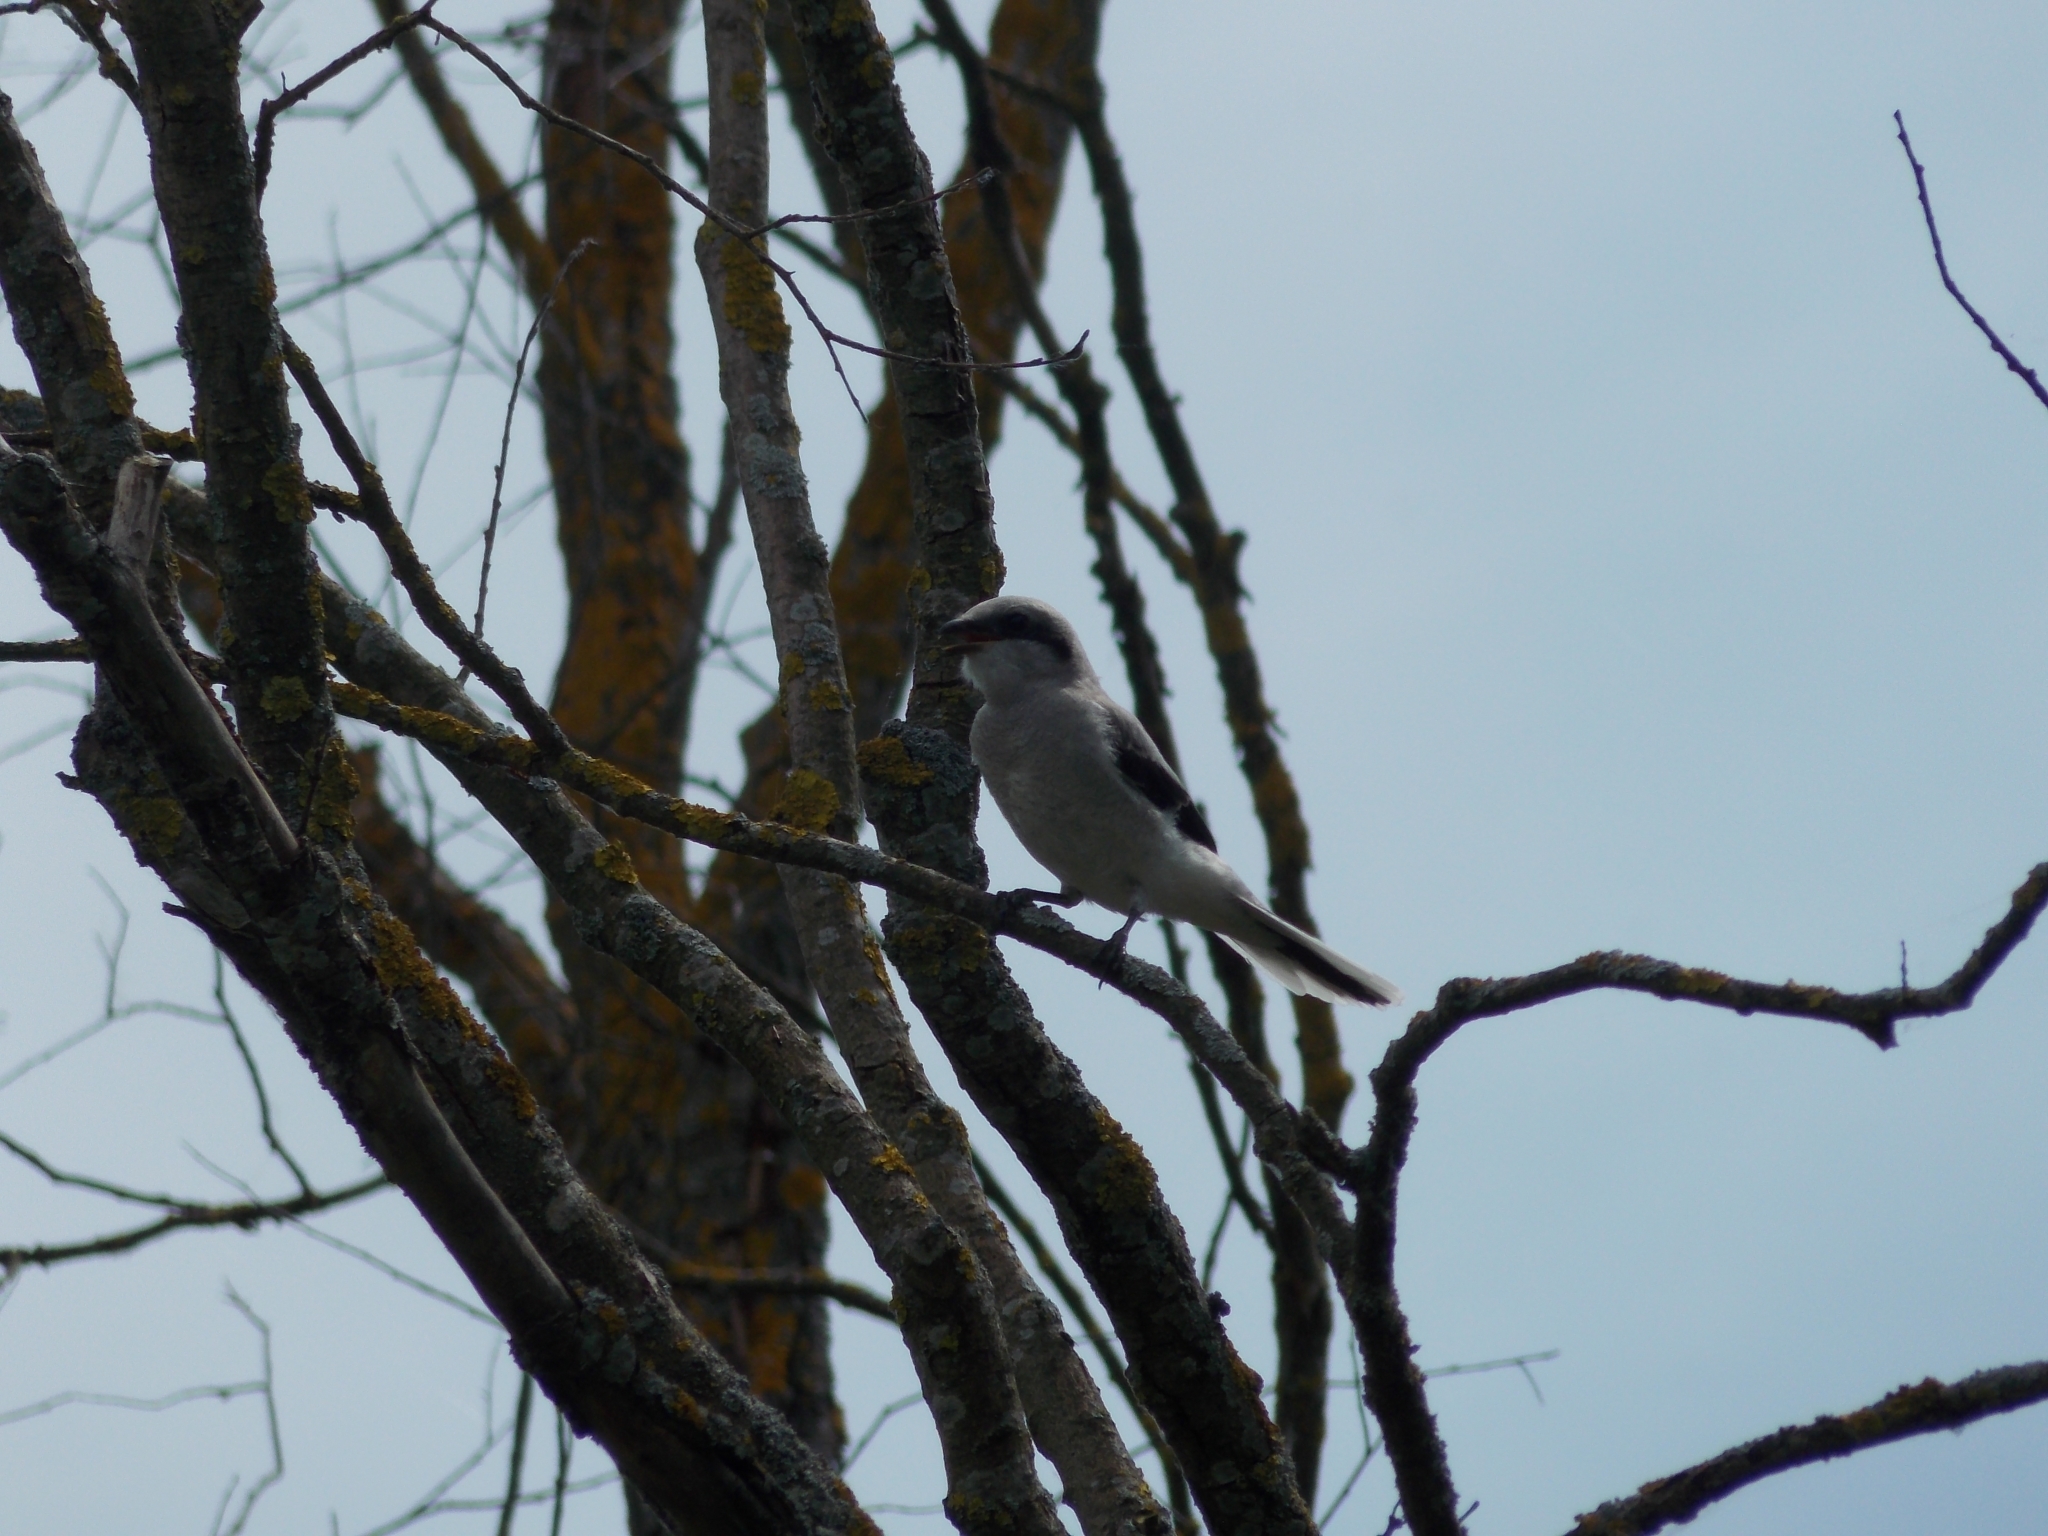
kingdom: Animalia
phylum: Chordata
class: Aves
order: Passeriformes
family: Laniidae
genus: Lanius
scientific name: Lanius excubitor
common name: Great grey shrike
